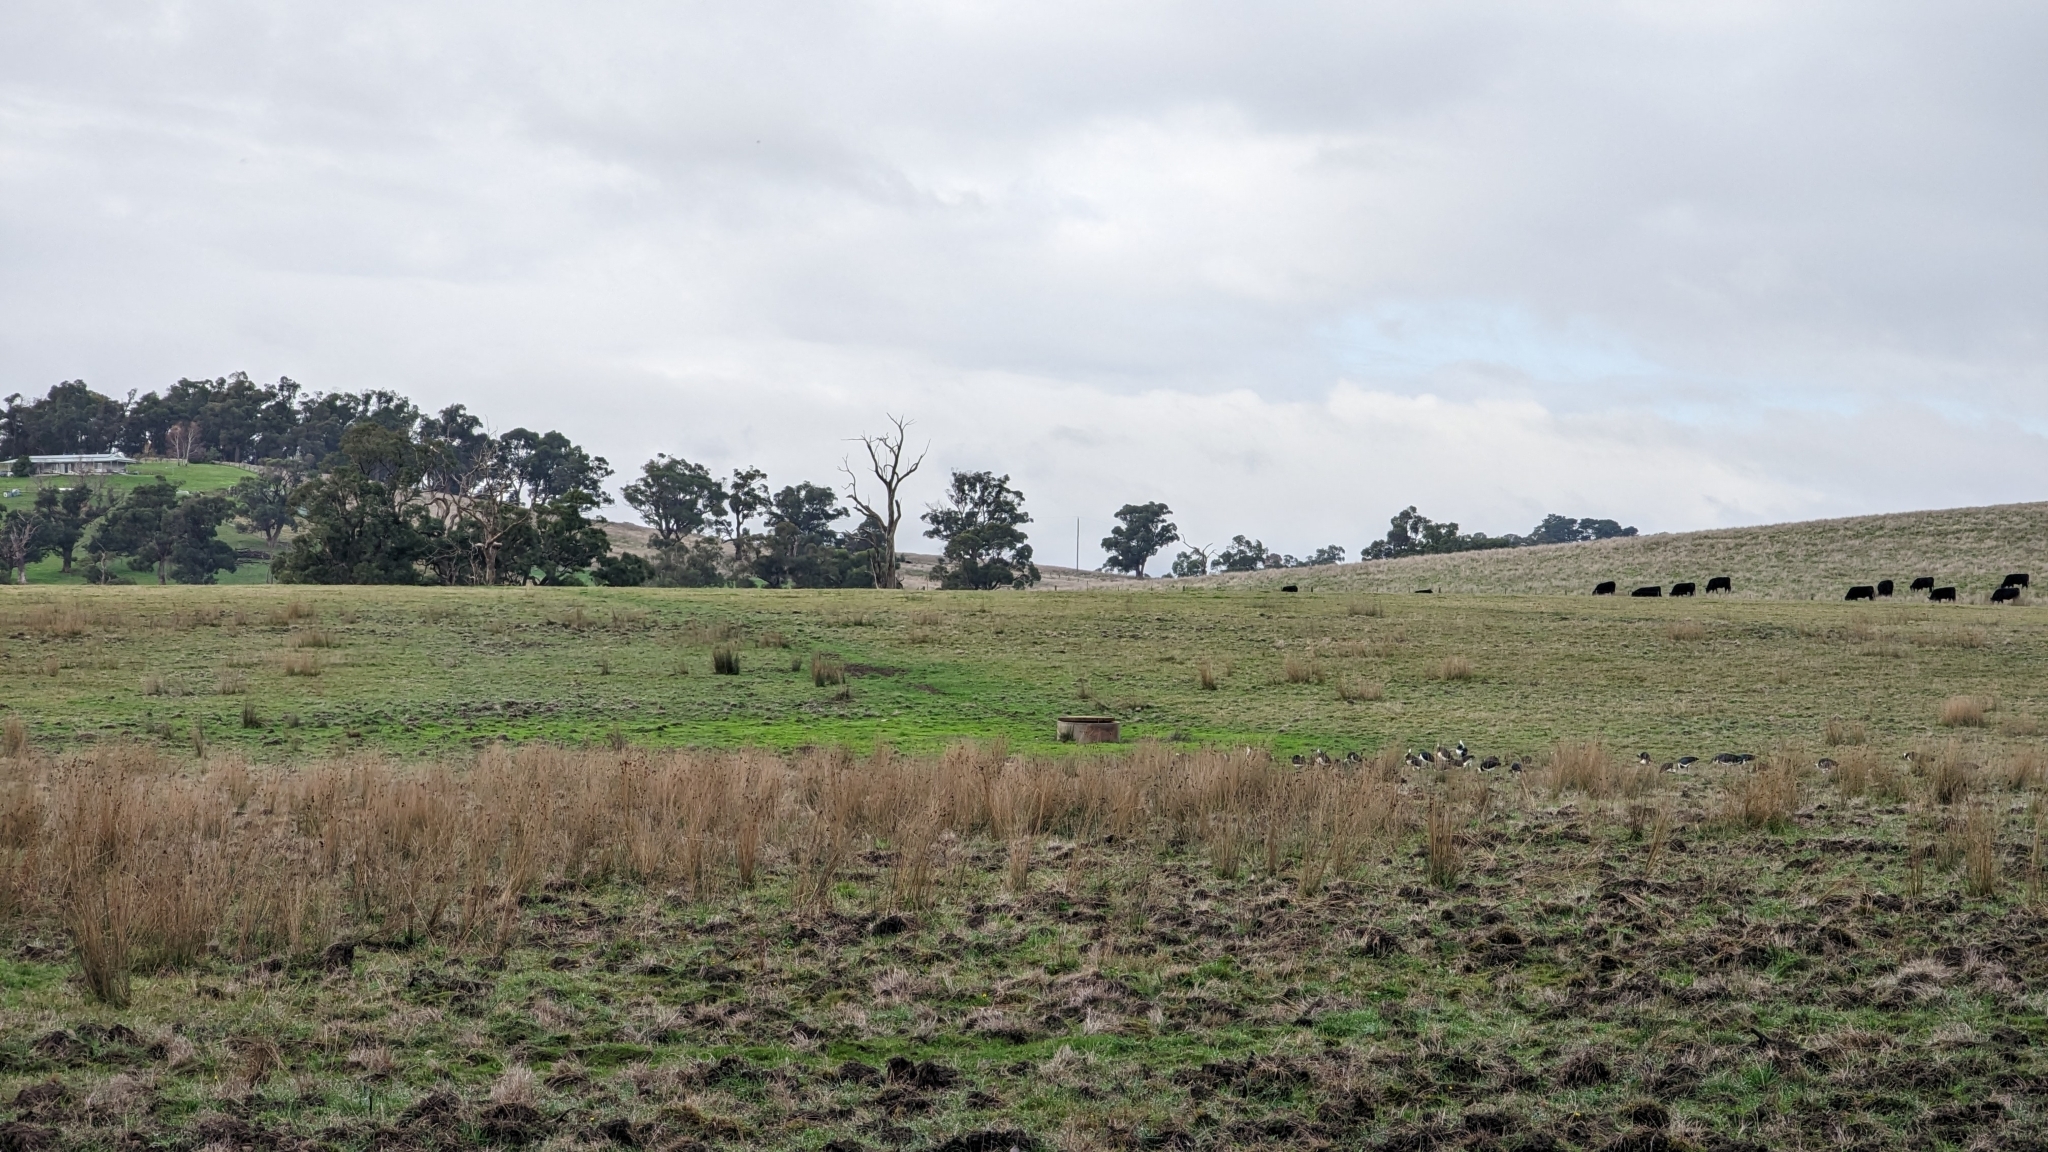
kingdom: Animalia
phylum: Chordata
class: Aves
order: Pelecaniformes
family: Threskiornithidae
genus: Threskiornis
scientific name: Threskiornis spinicollis
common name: Straw-necked ibis
